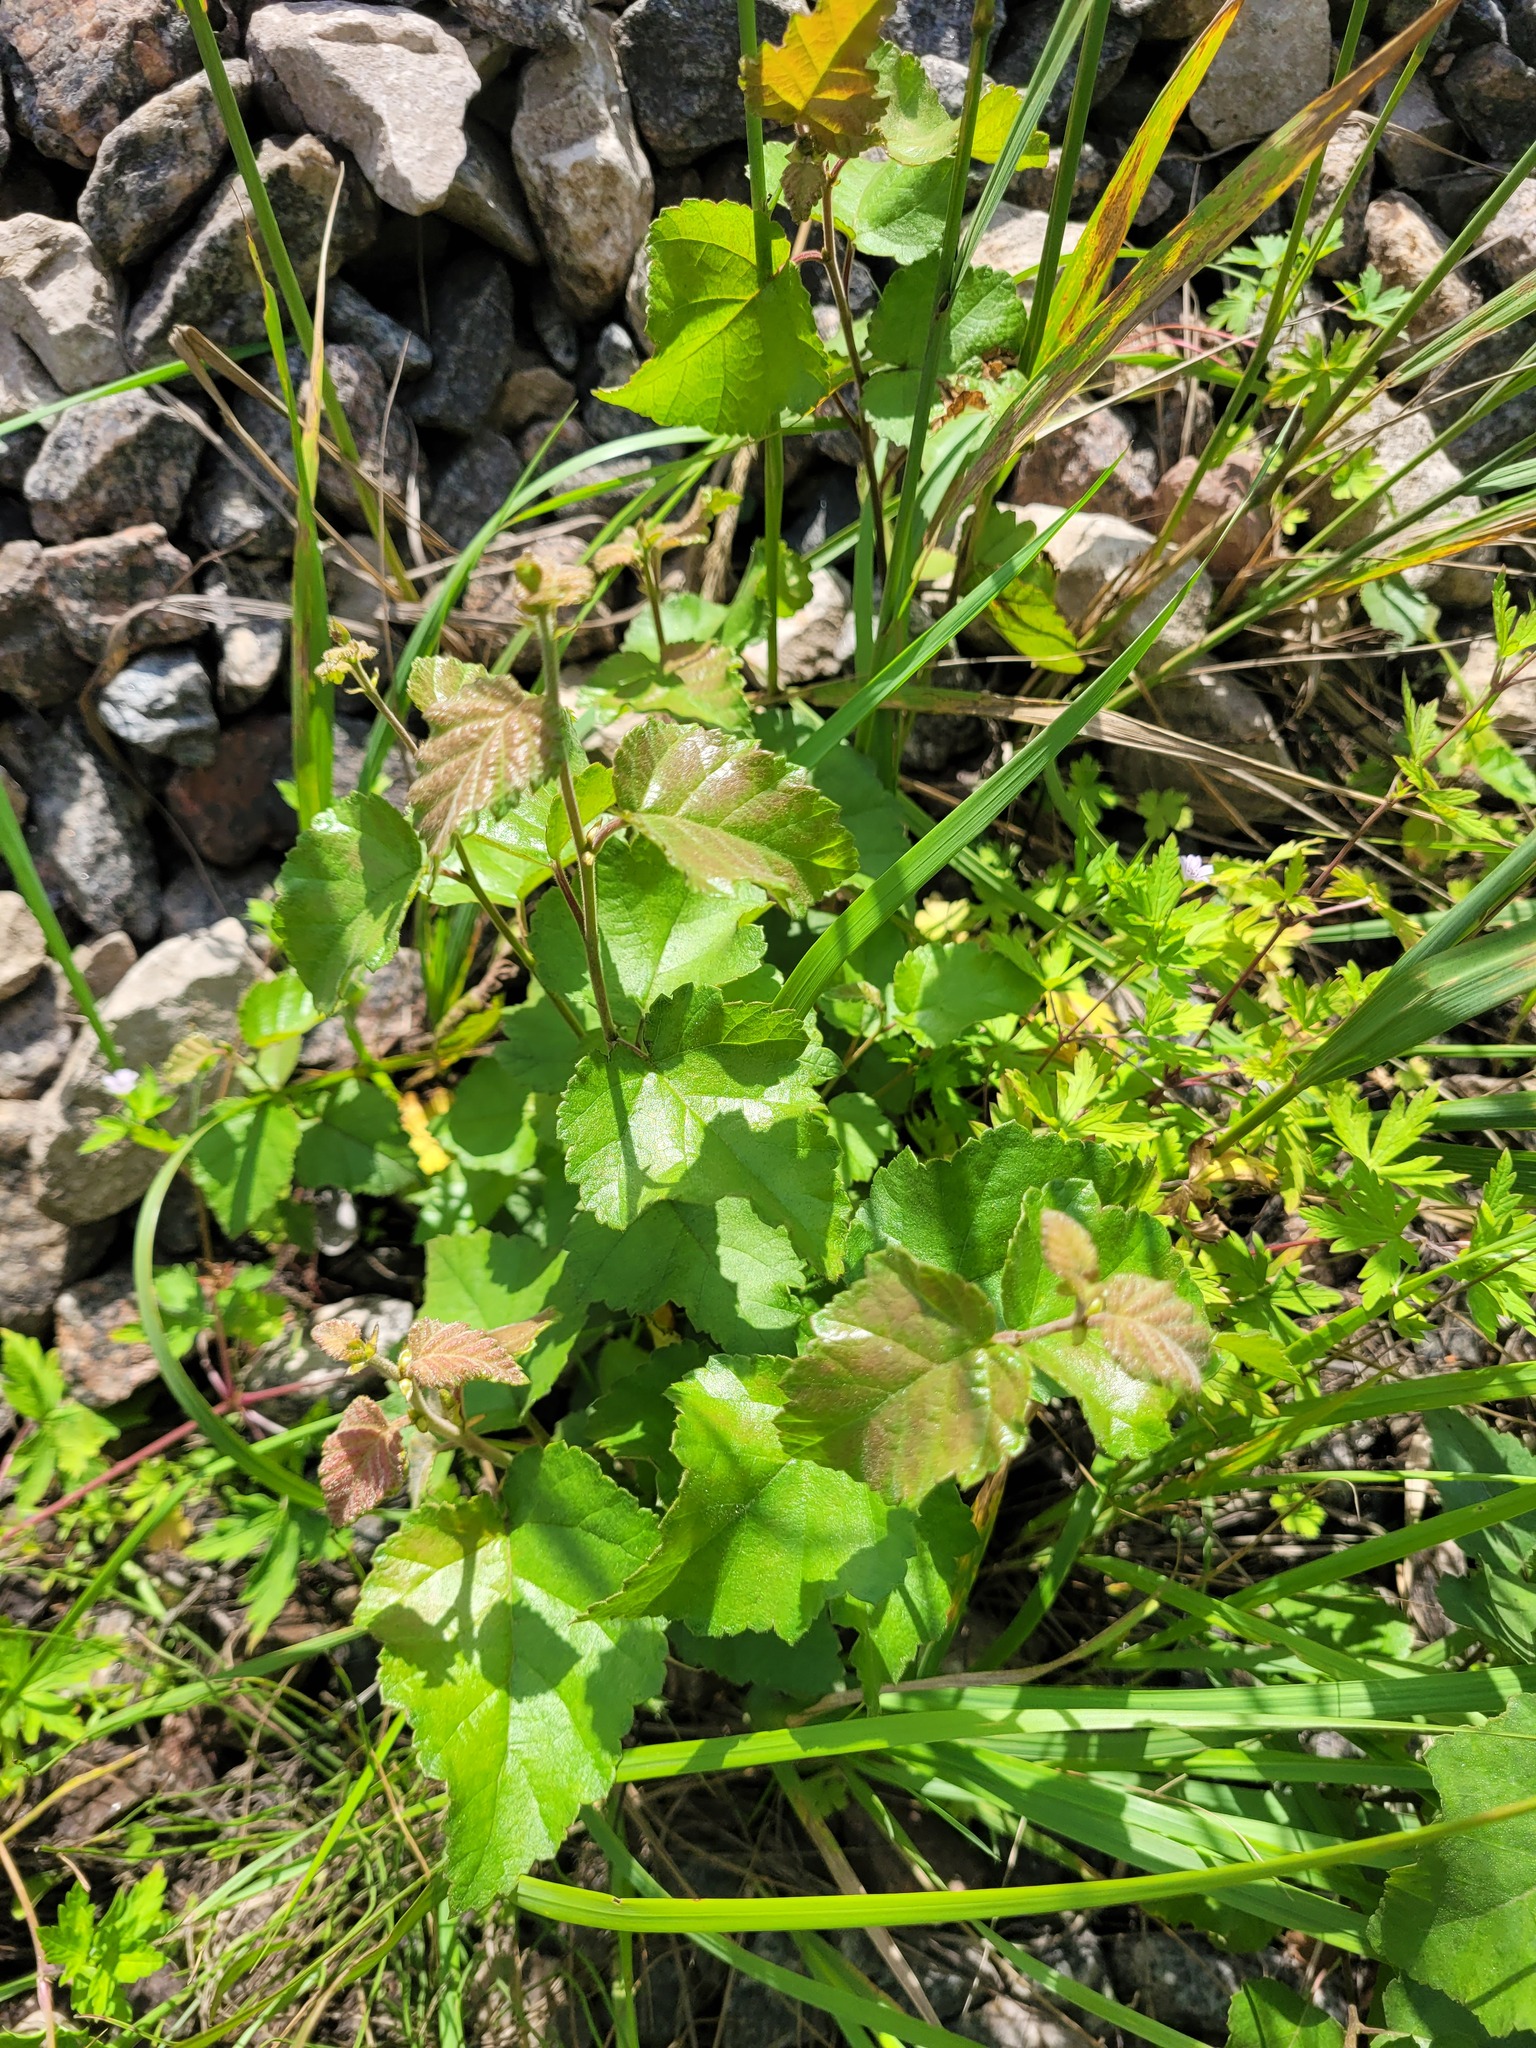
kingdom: Plantae
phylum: Tracheophyta
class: Magnoliopsida
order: Fagales
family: Betulaceae
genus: Betula
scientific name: Betula pubescens
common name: Downy birch
